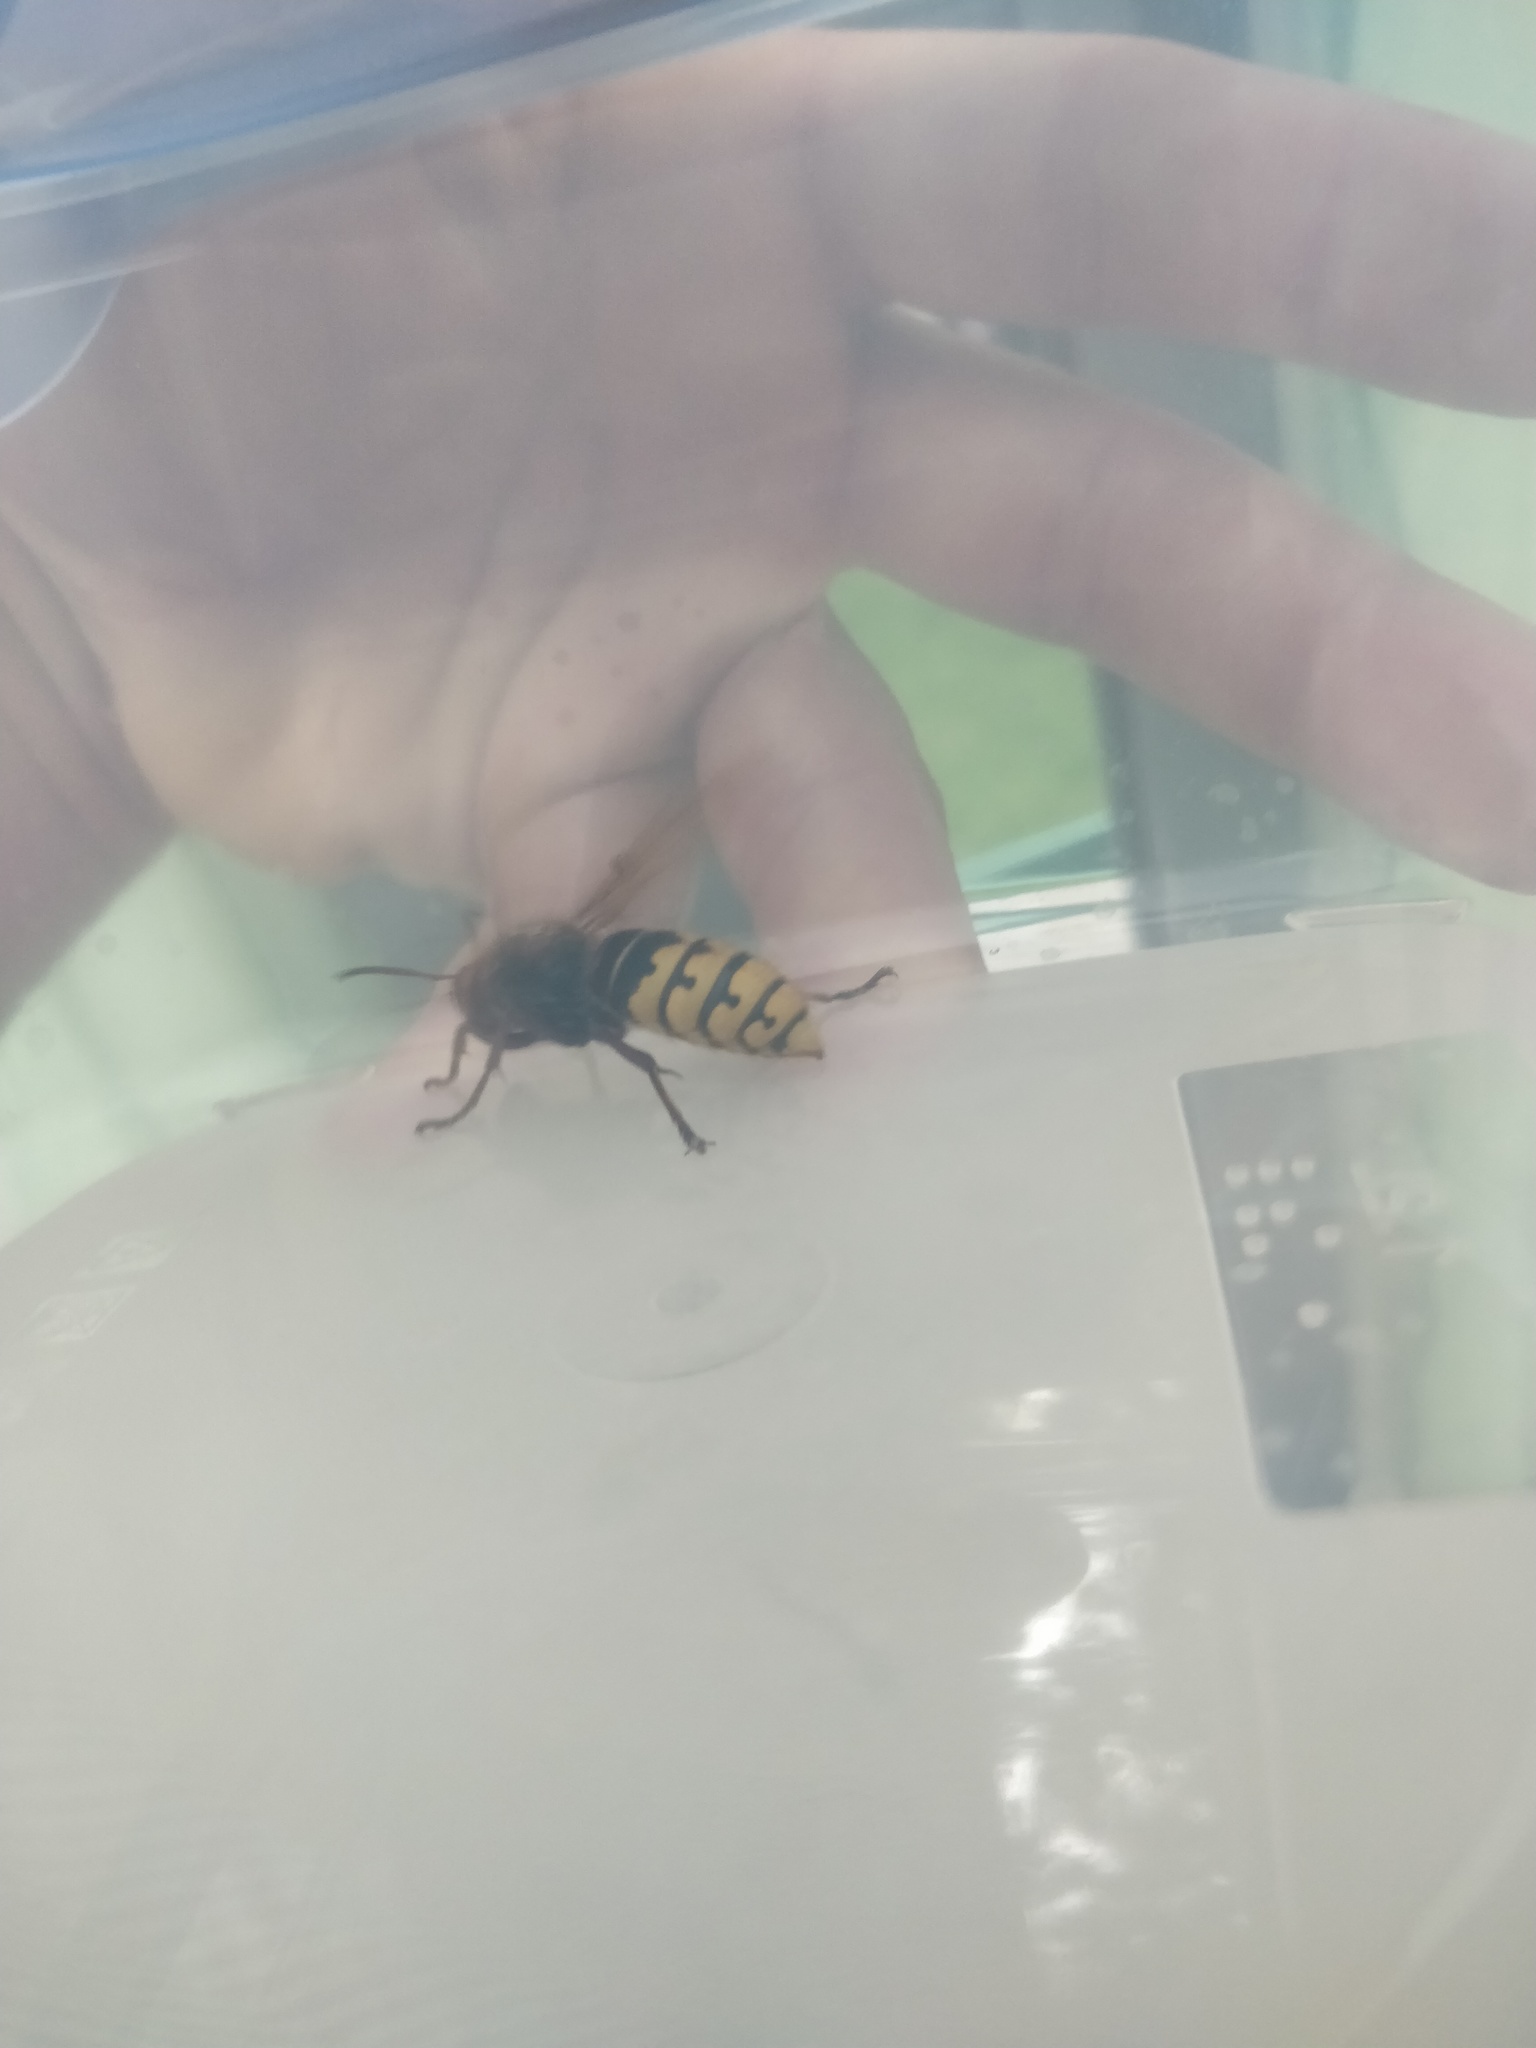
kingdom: Animalia
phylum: Arthropoda
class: Insecta
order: Hymenoptera
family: Vespidae
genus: Vespa
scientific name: Vespa crabro
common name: Hornet
